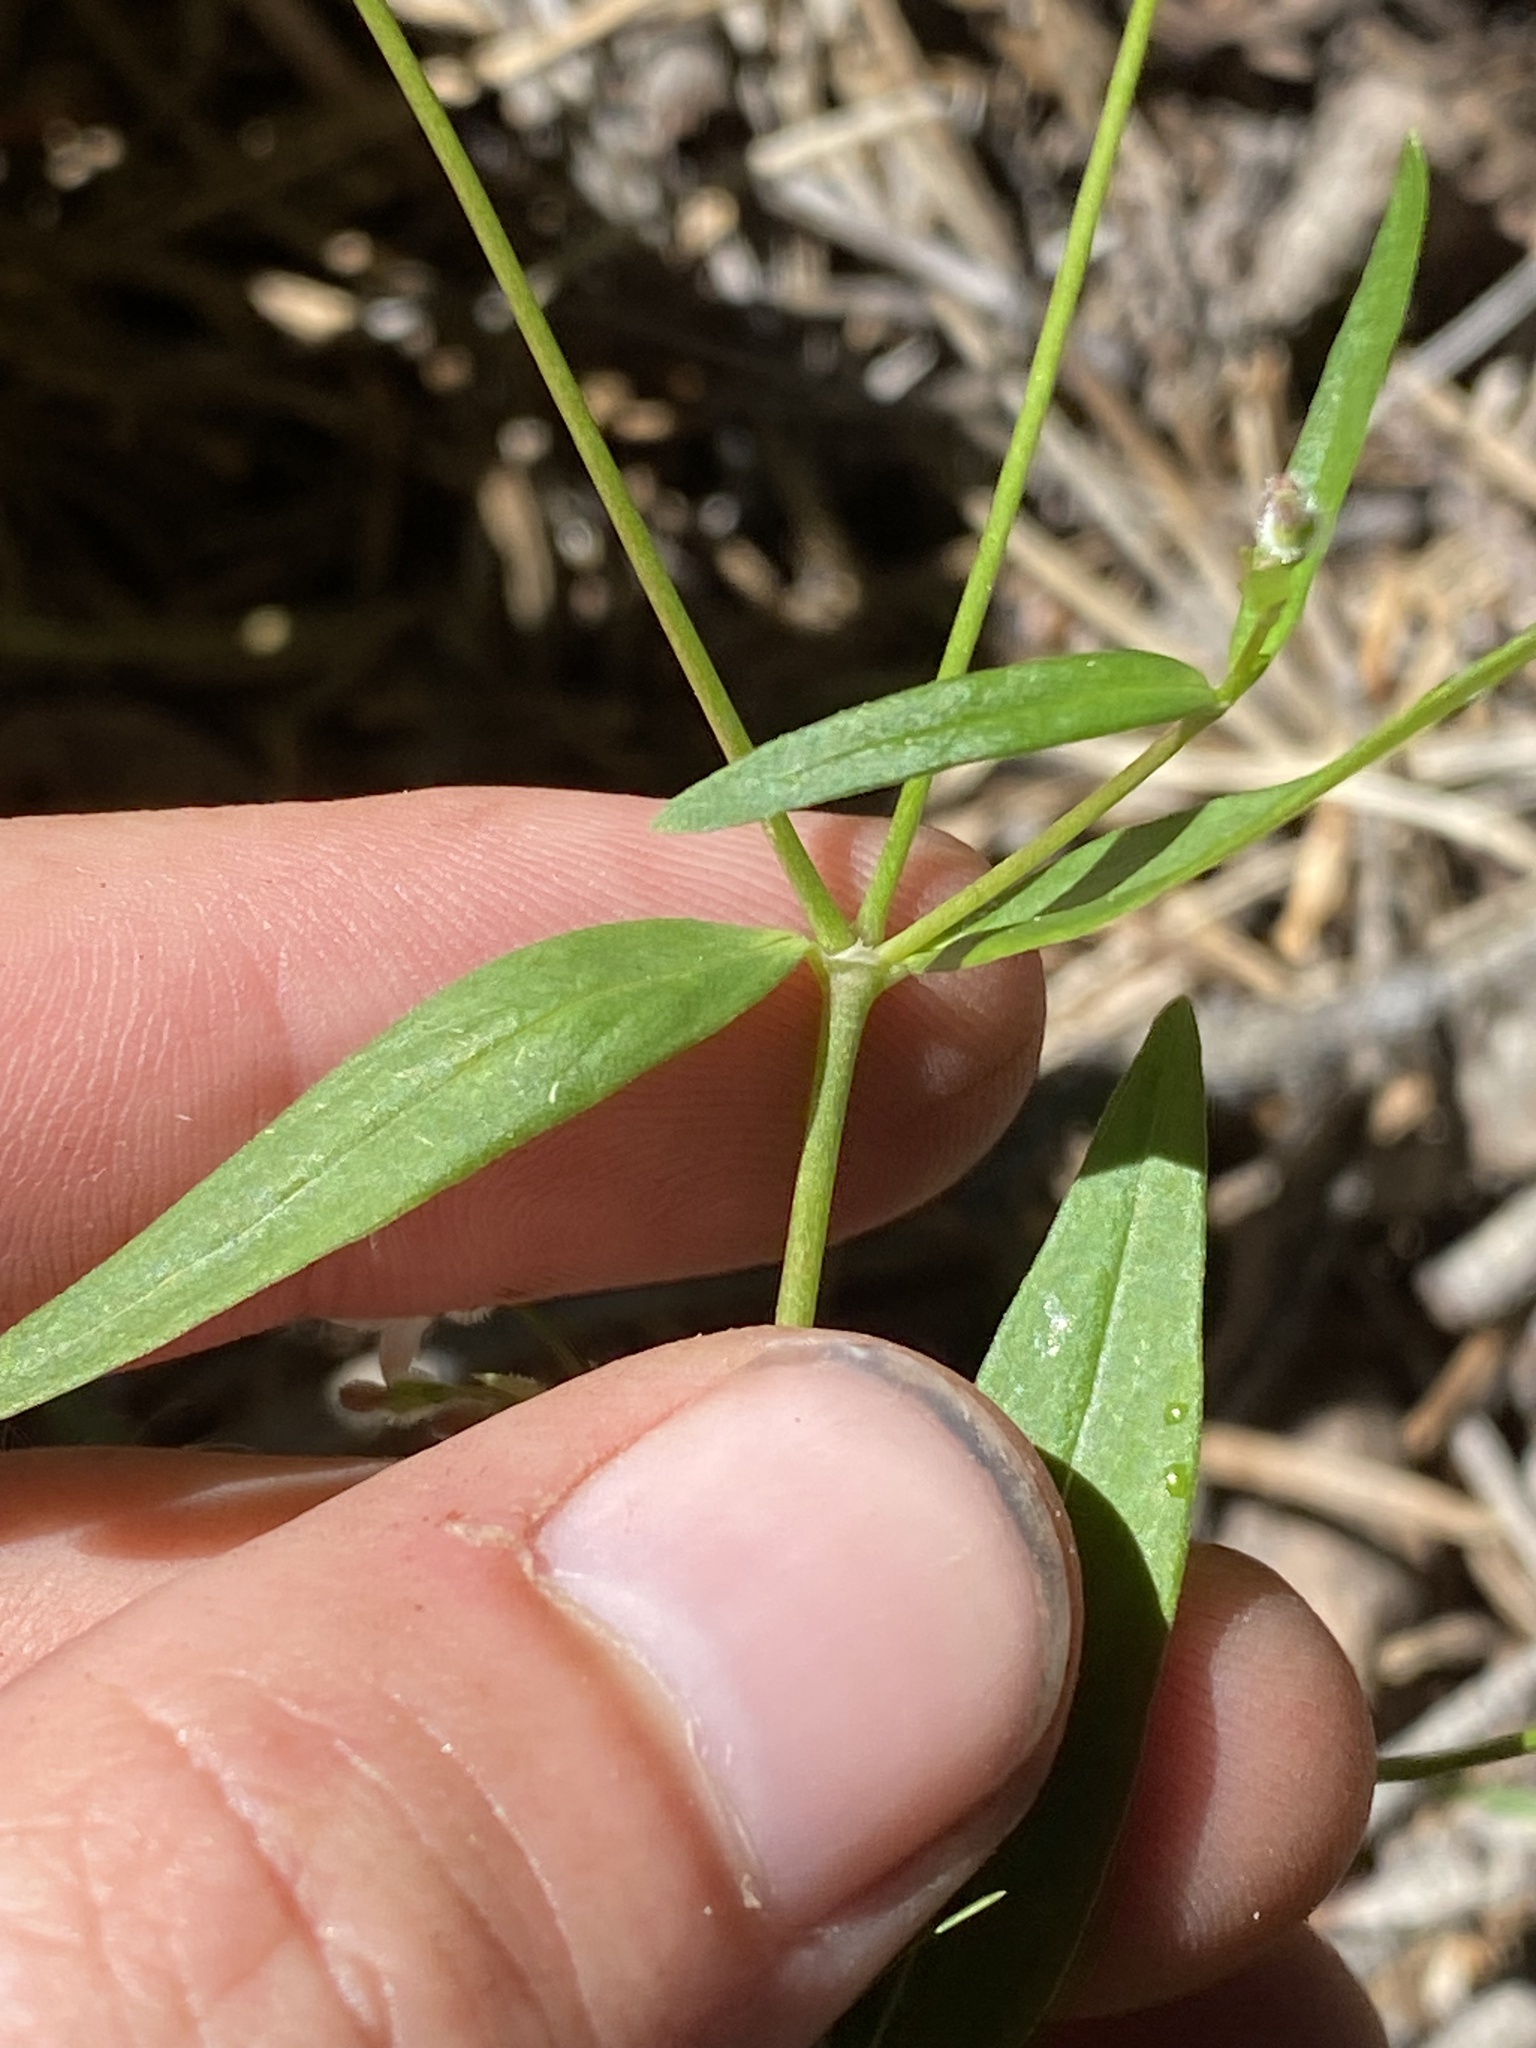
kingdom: Plantae
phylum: Tracheophyta
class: Magnoliopsida
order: Gentianales
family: Rubiaceae
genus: Kelloggia
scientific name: Kelloggia galioides
